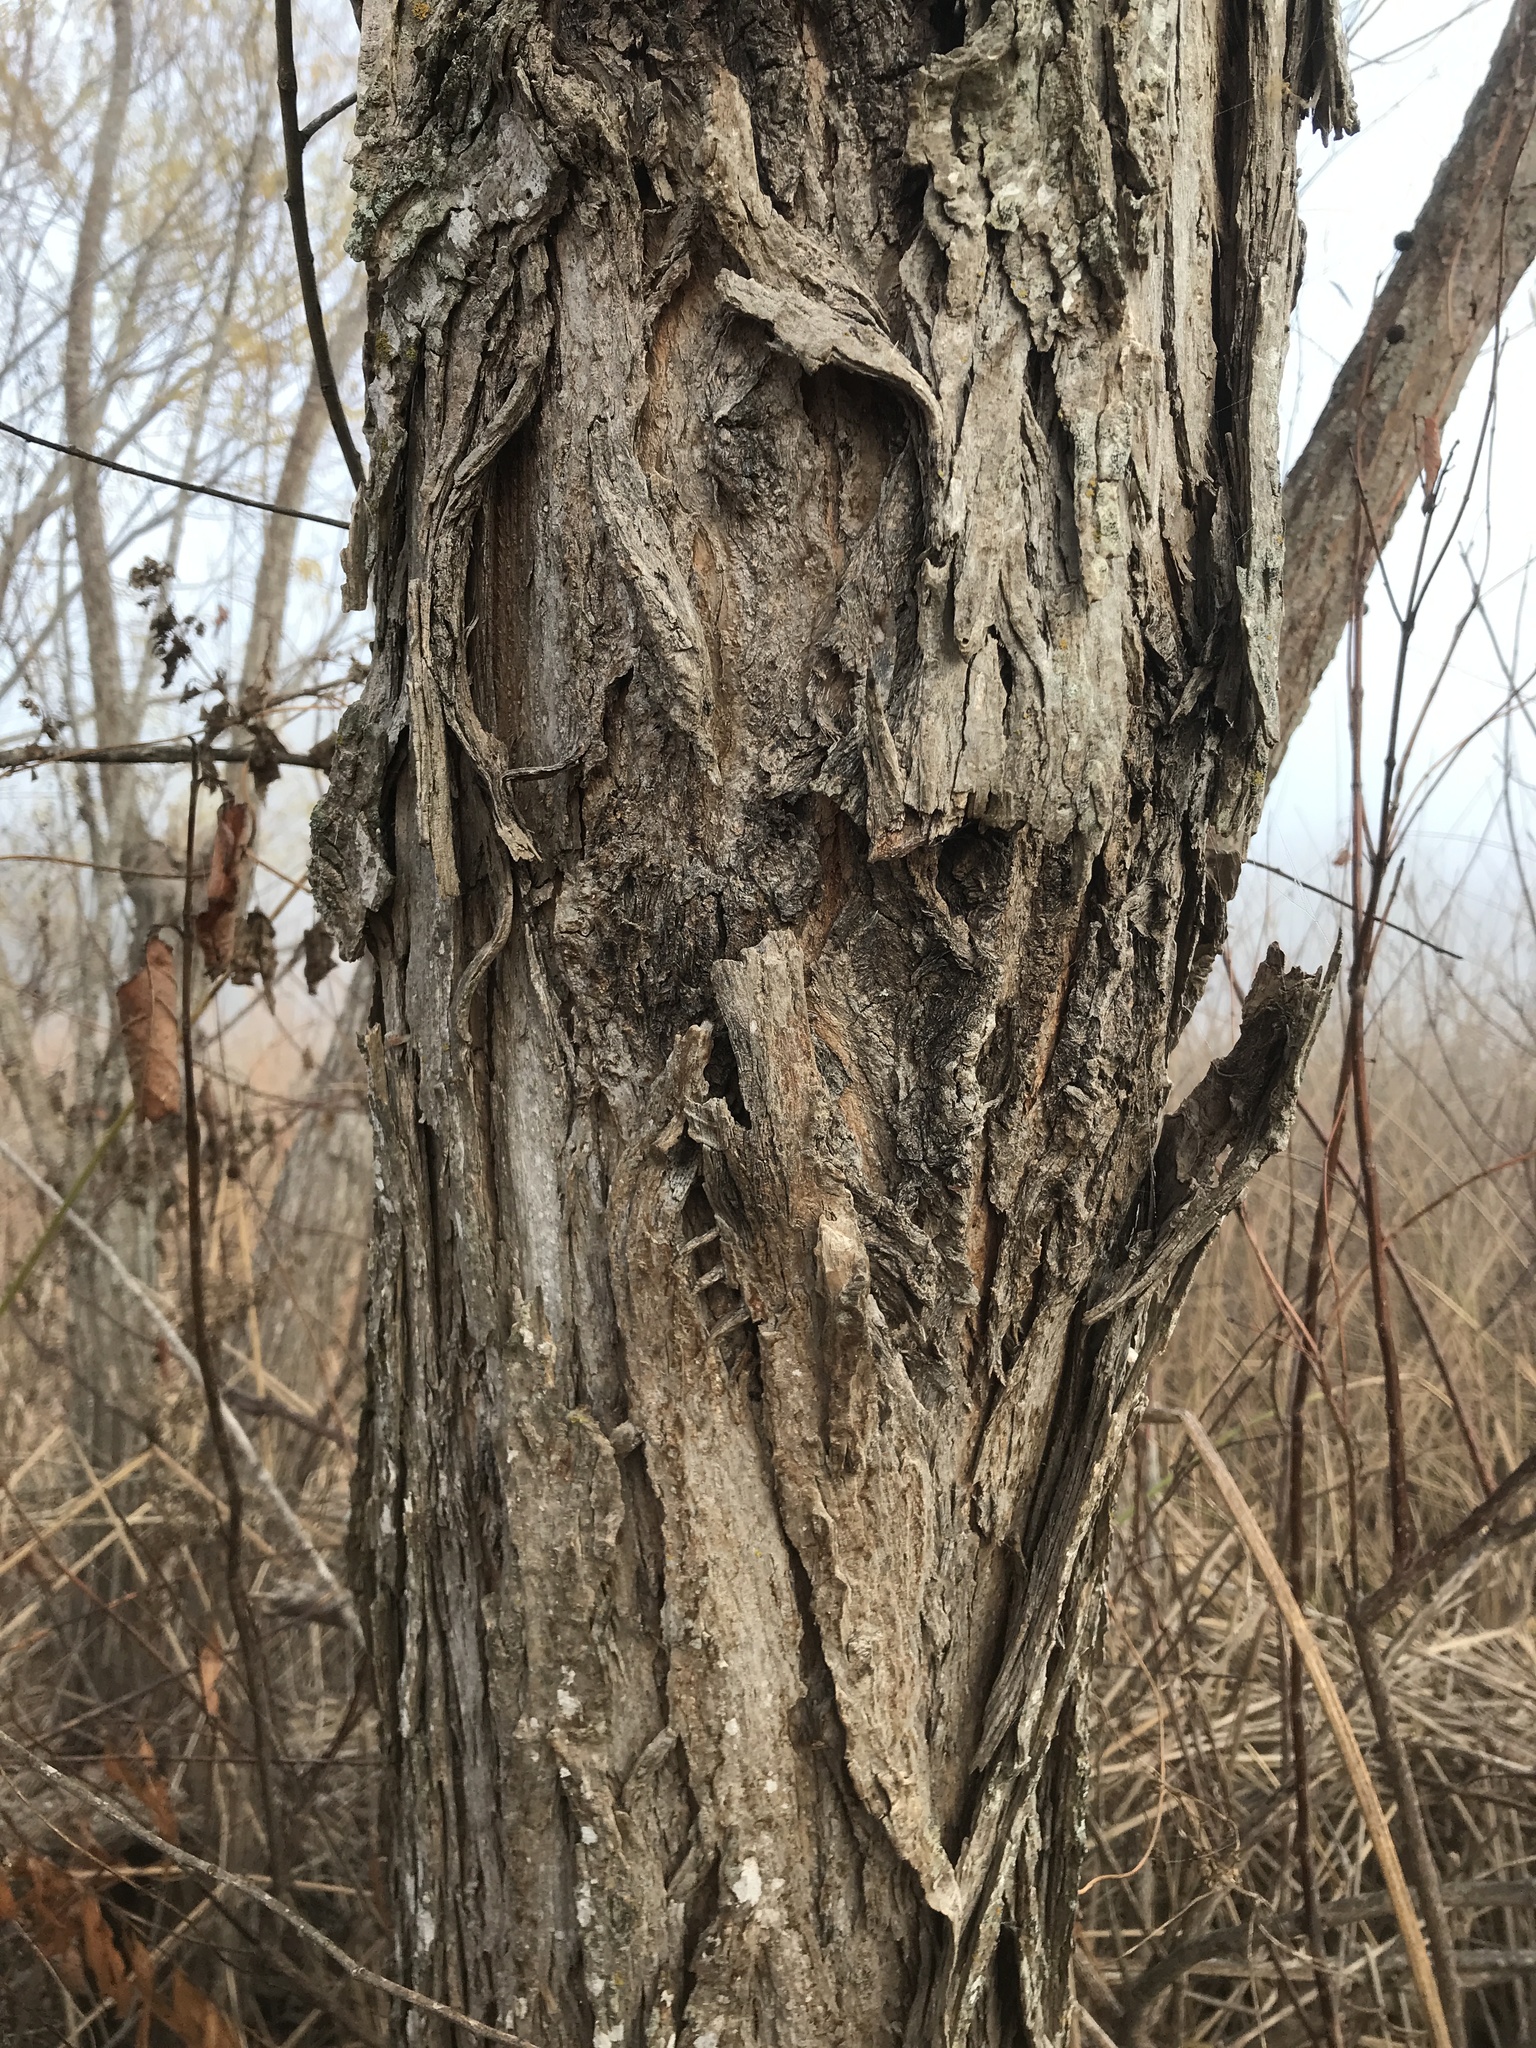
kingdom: Plantae
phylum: Tracheophyta
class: Magnoliopsida
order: Malpighiales
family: Salicaceae
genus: Salix
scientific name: Salix nigra
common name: Black willow
